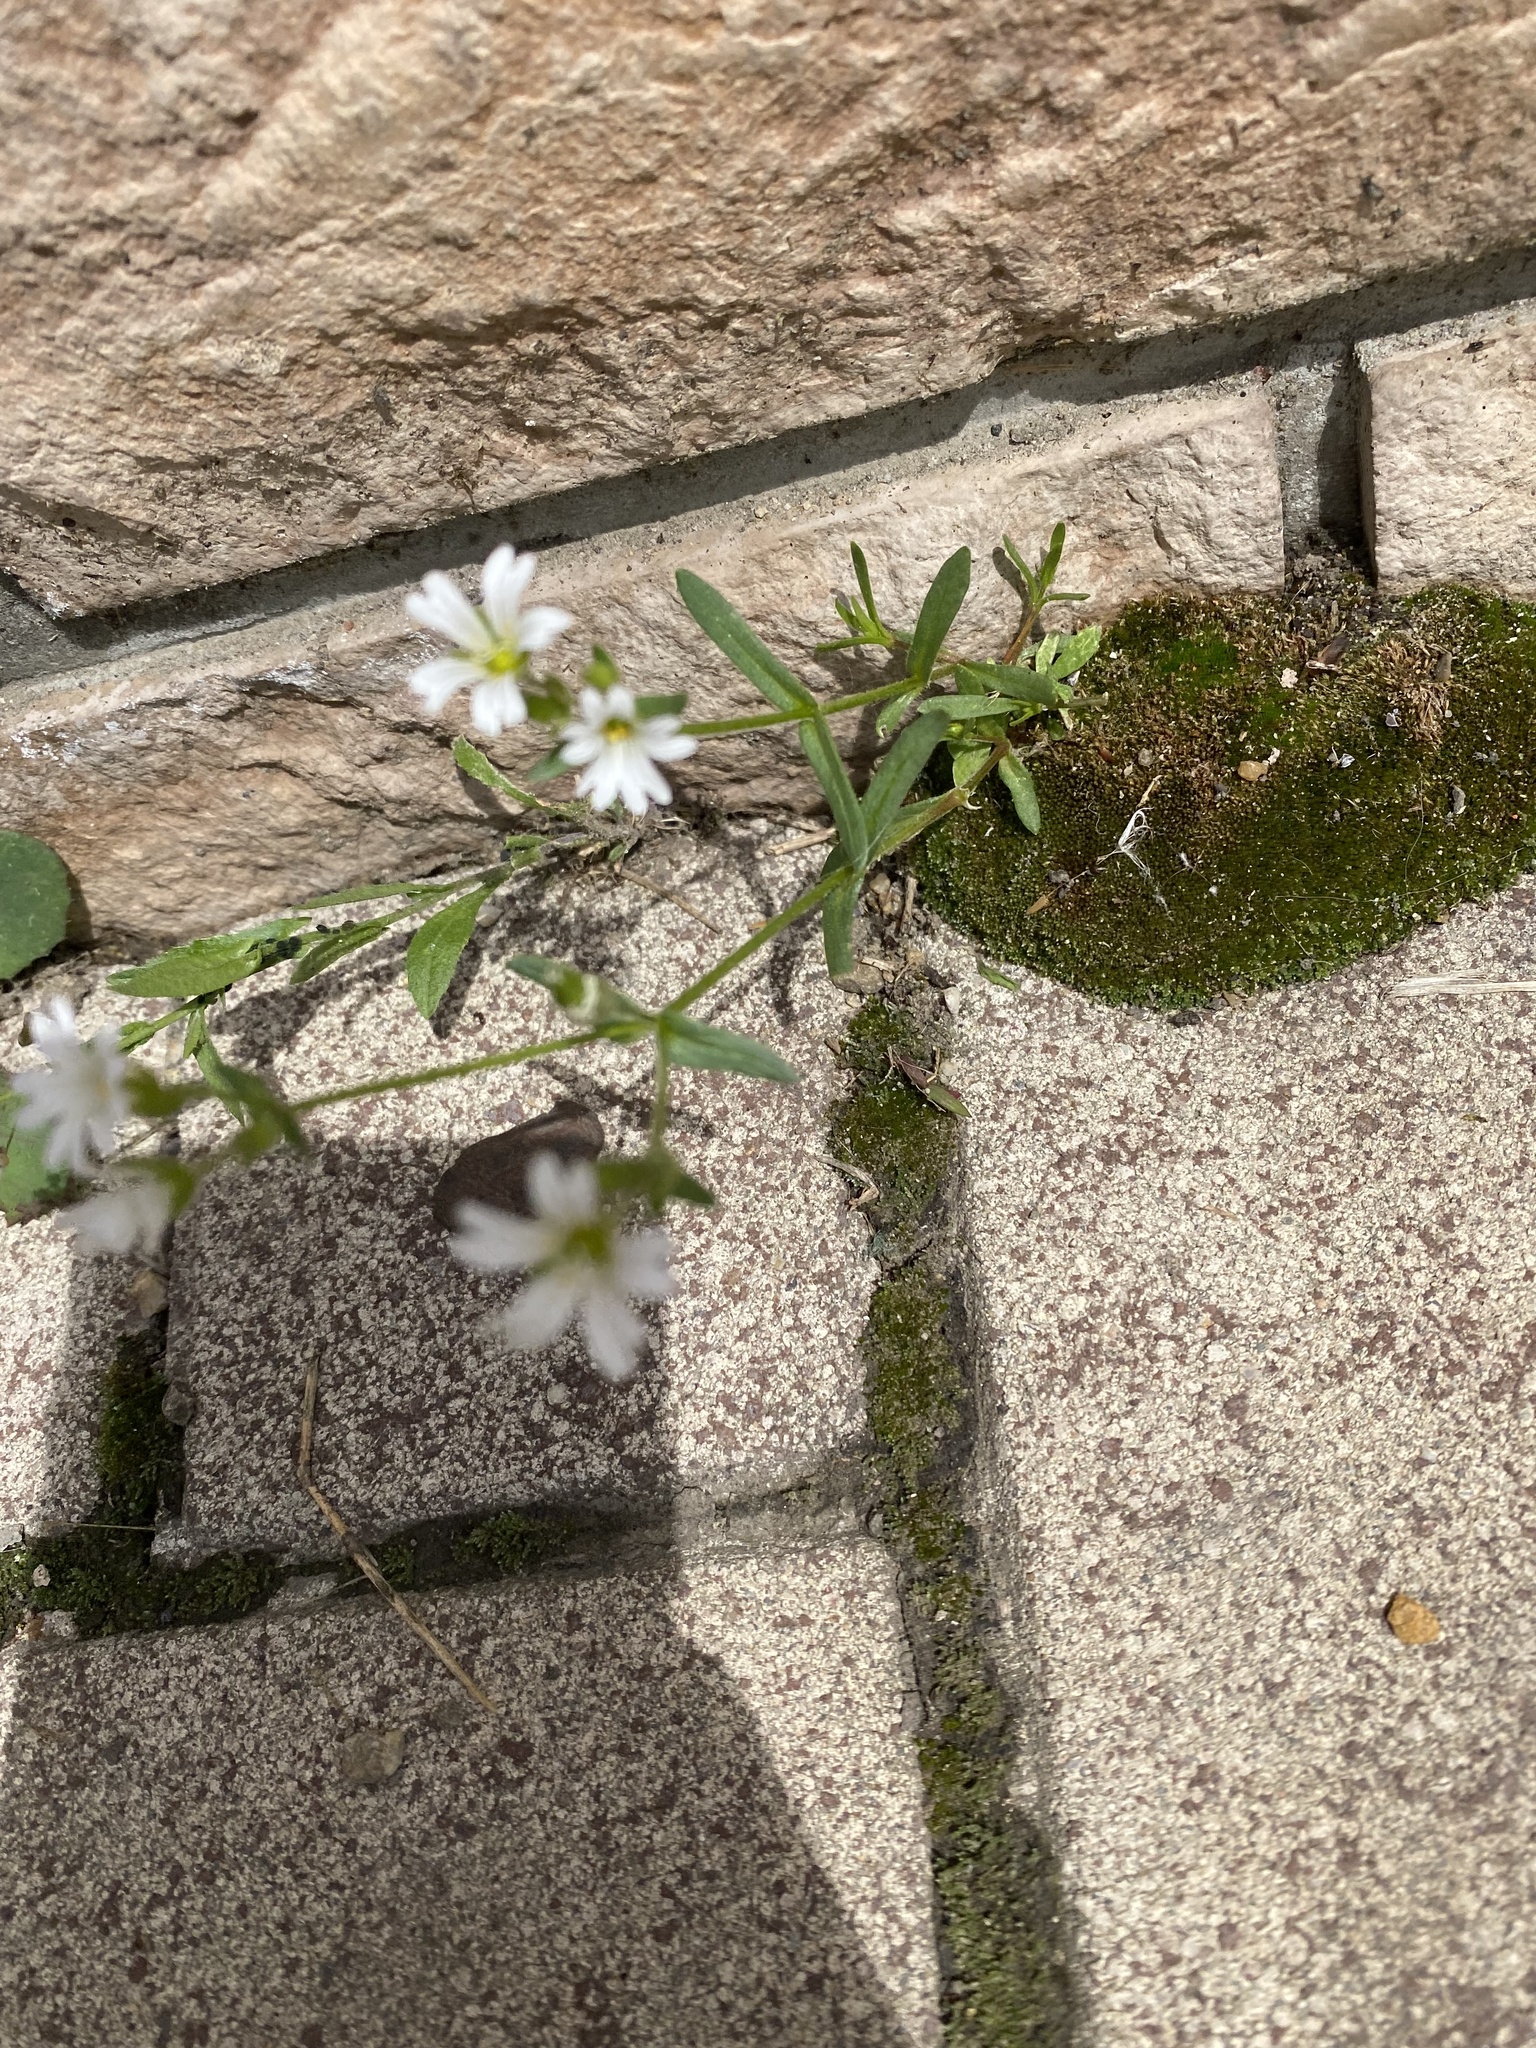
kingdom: Plantae
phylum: Tracheophyta
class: Magnoliopsida
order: Caryophyllales
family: Caryophyllaceae
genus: Dichodon
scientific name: Dichodon viscidum
